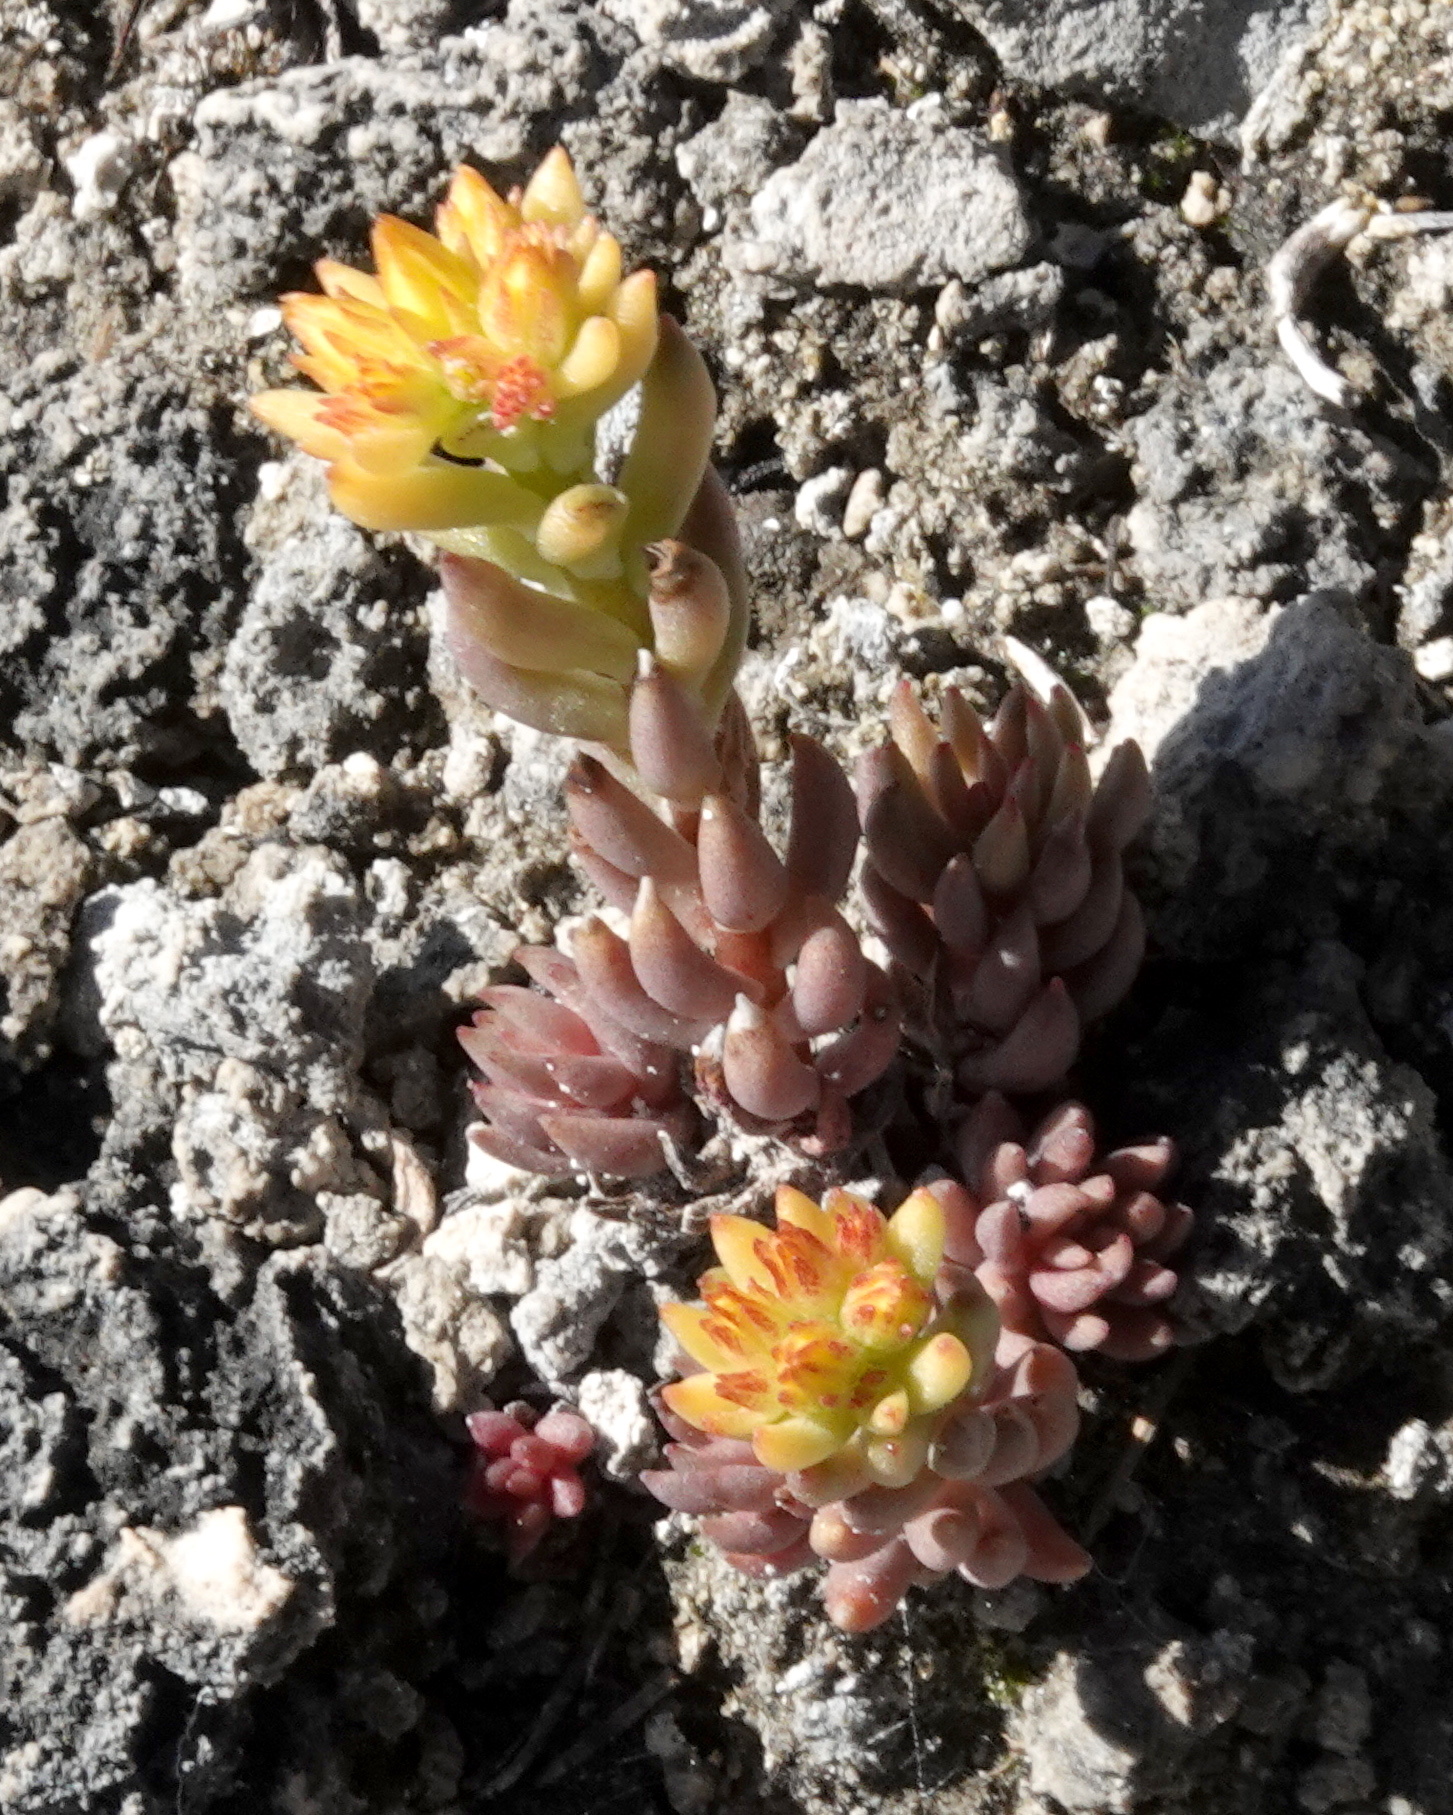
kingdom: Plantae
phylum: Tracheophyta
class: Magnoliopsida
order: Saxifragales
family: Crassulaceae
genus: Sedum
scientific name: Sedum lanceolatum
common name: Common stonecrop
